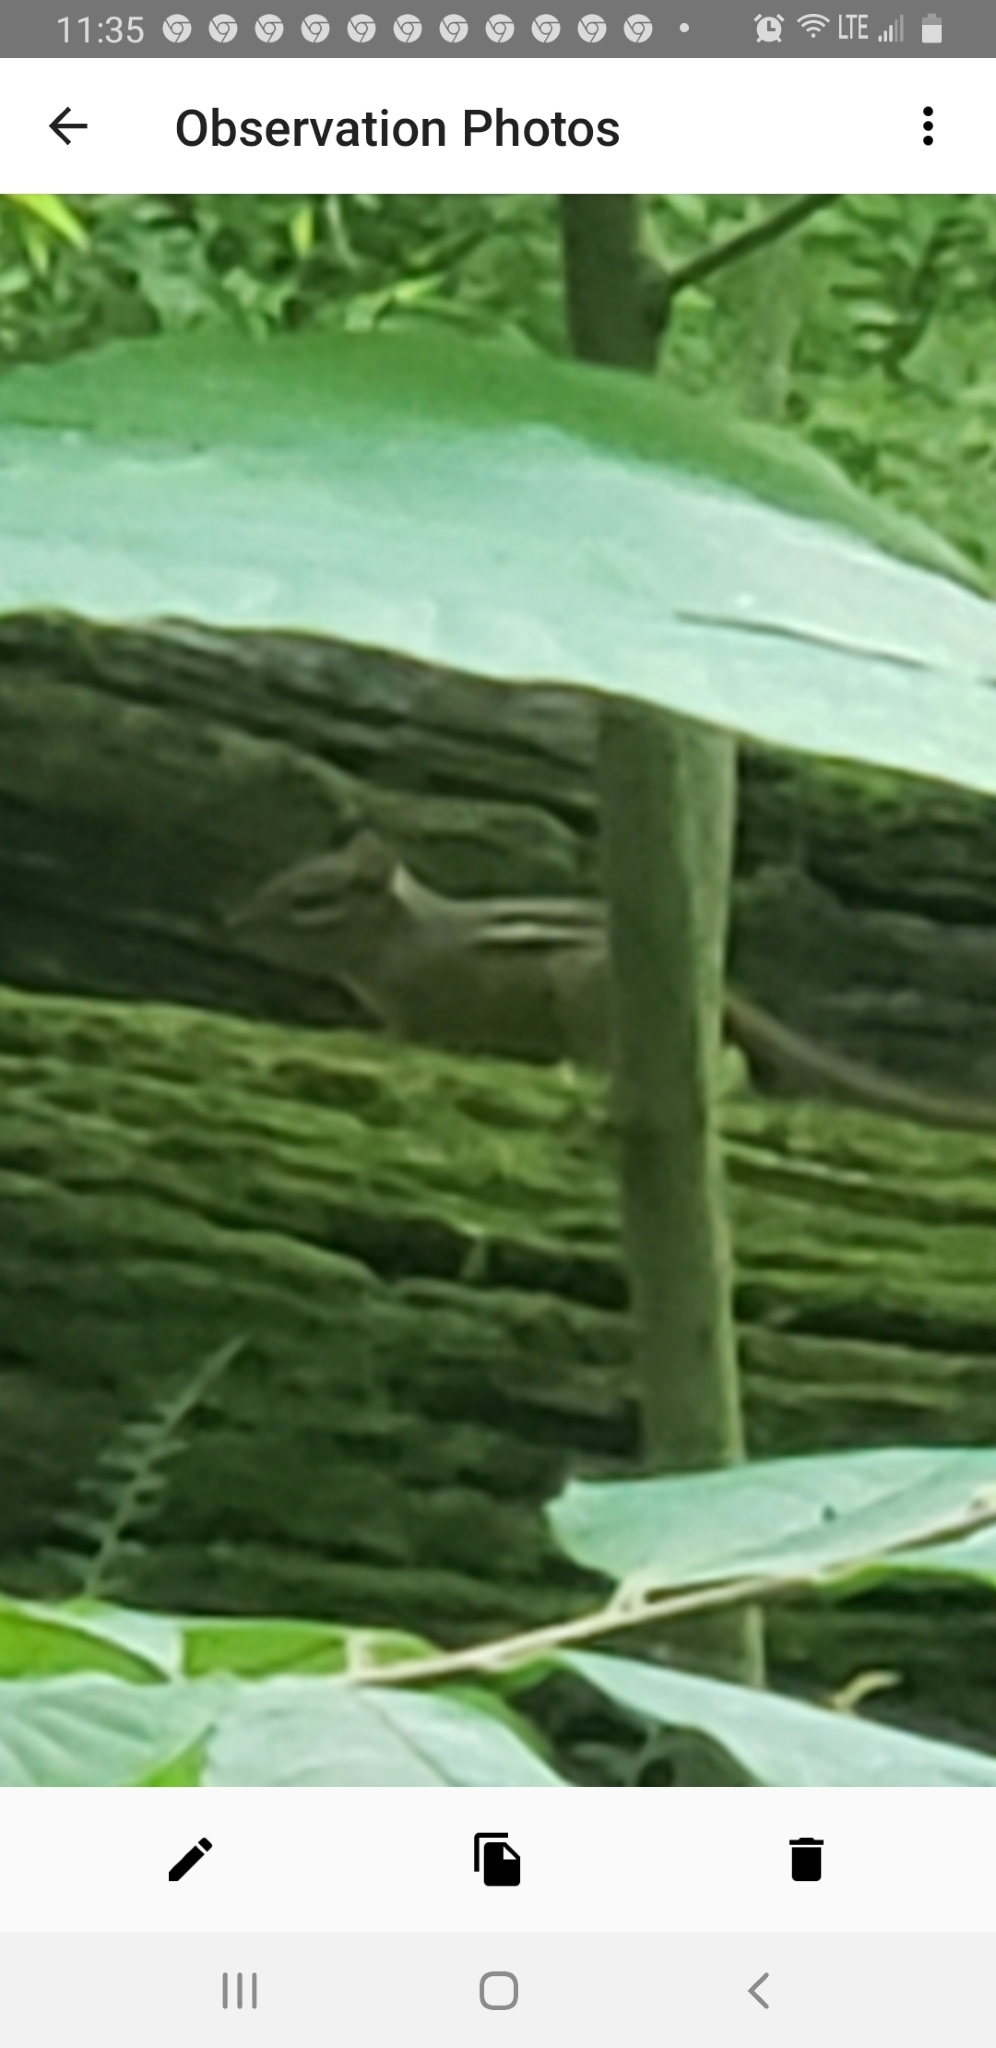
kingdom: Animalia
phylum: Chordata
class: Mammalia
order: Rodentia
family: Sciuridae
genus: Tamias
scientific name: Tamias striatus
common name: Eastern chipmunk
